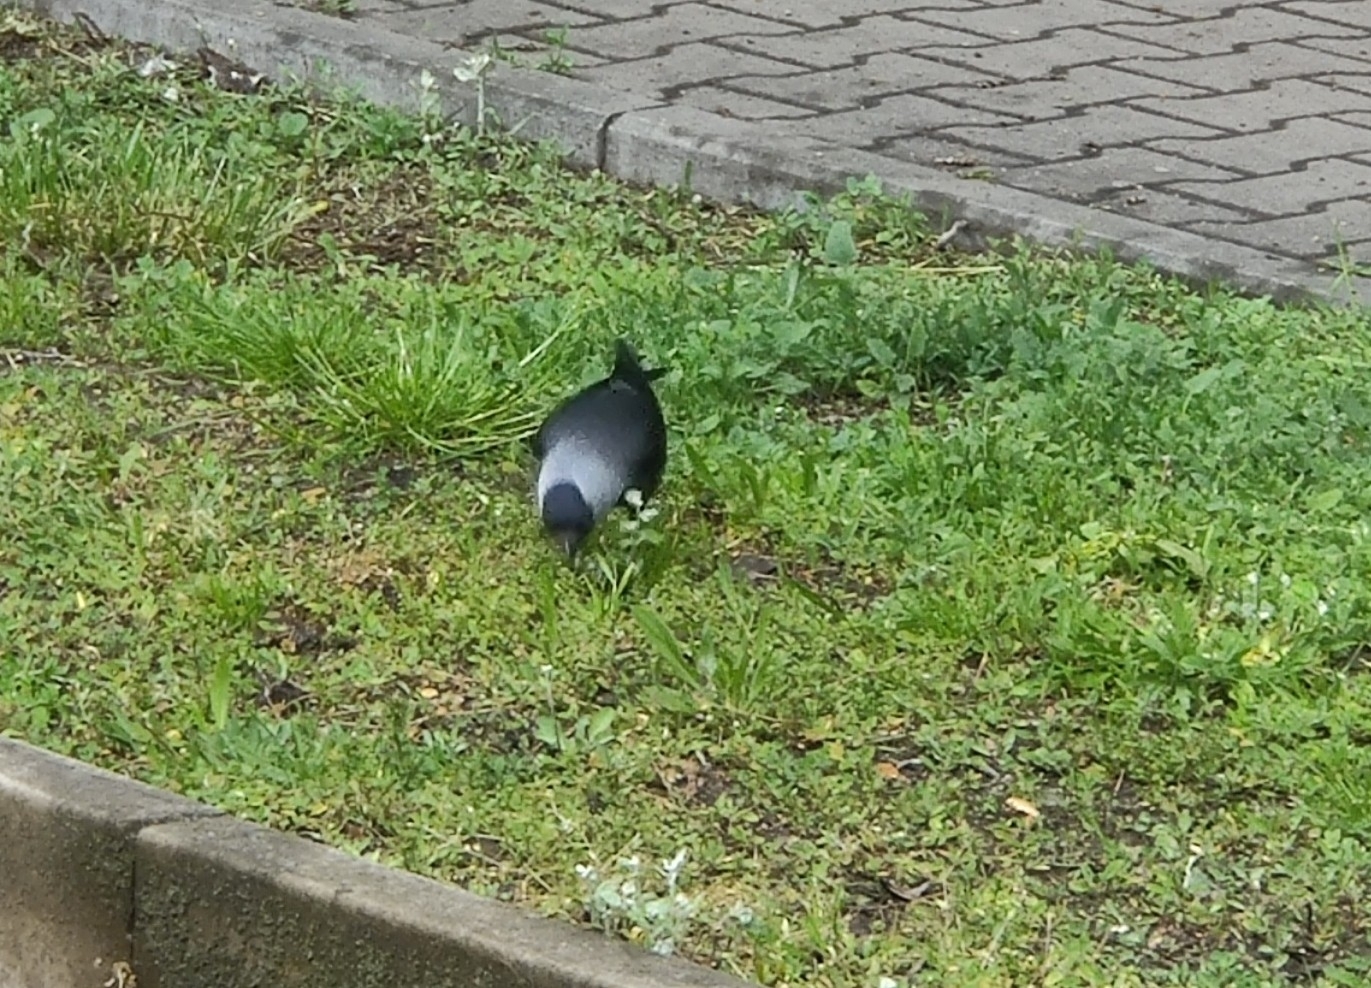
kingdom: Animalia
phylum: Chordata
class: Aves
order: Passeriformes
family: Corvidae
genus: Coloeus
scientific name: Coloeus monedula
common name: Western jackdaw
